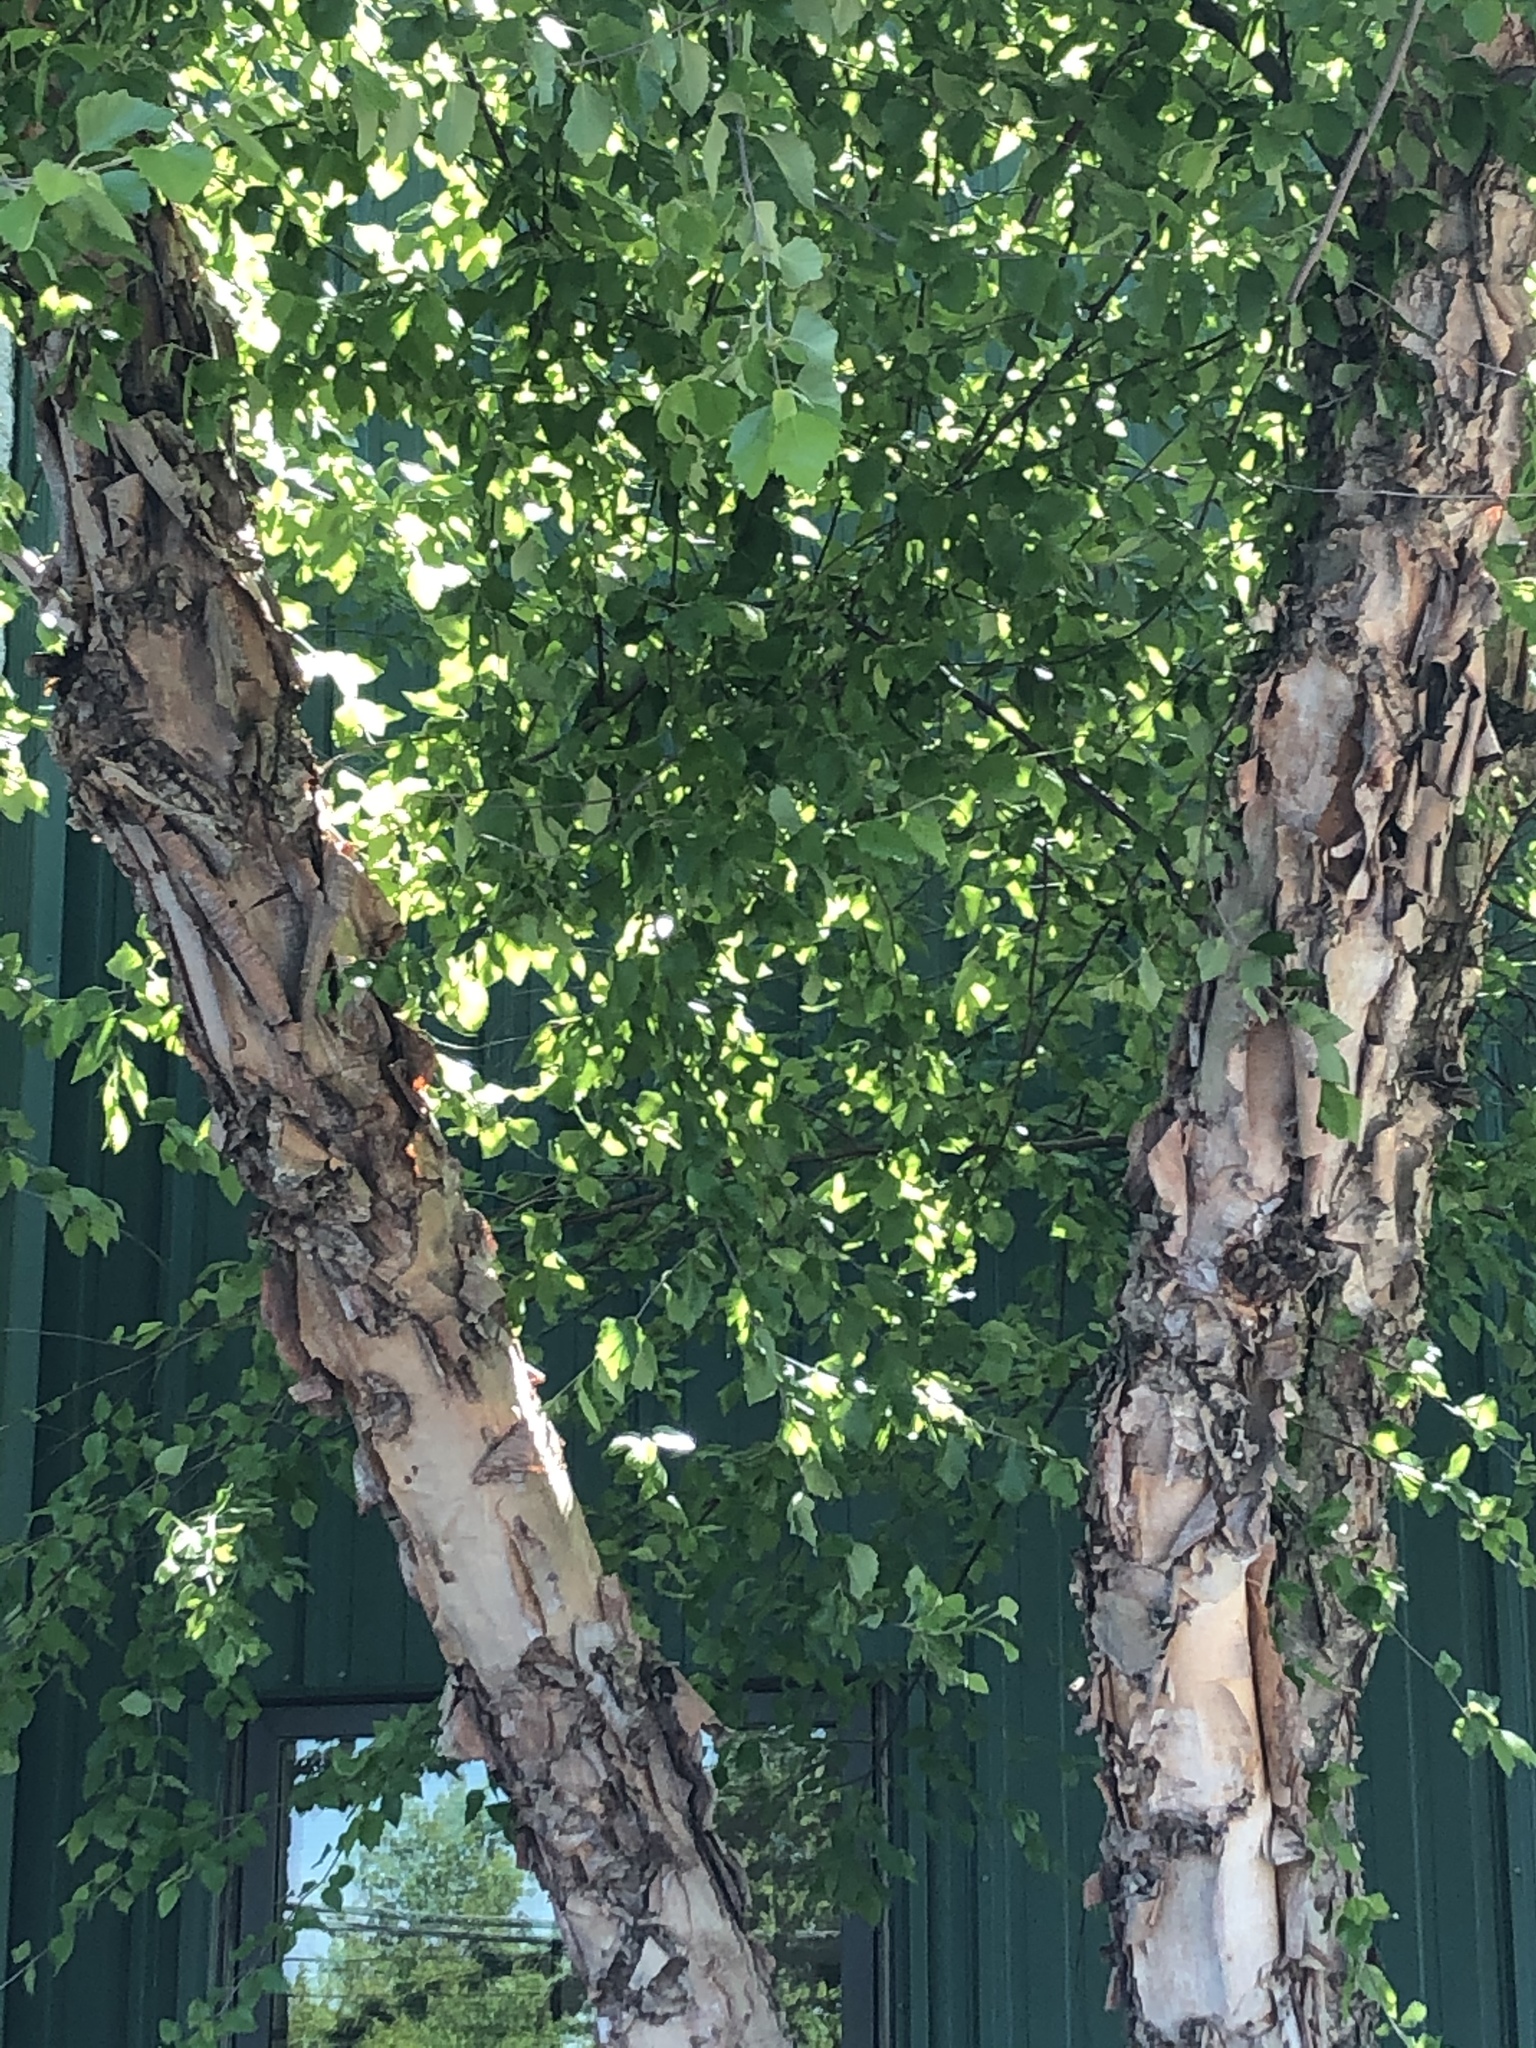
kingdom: Plantae
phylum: Tracheophyta
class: Magnoliopsida
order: Fagales
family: Betulaceae
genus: Betula
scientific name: Betula nigra
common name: Black birch
